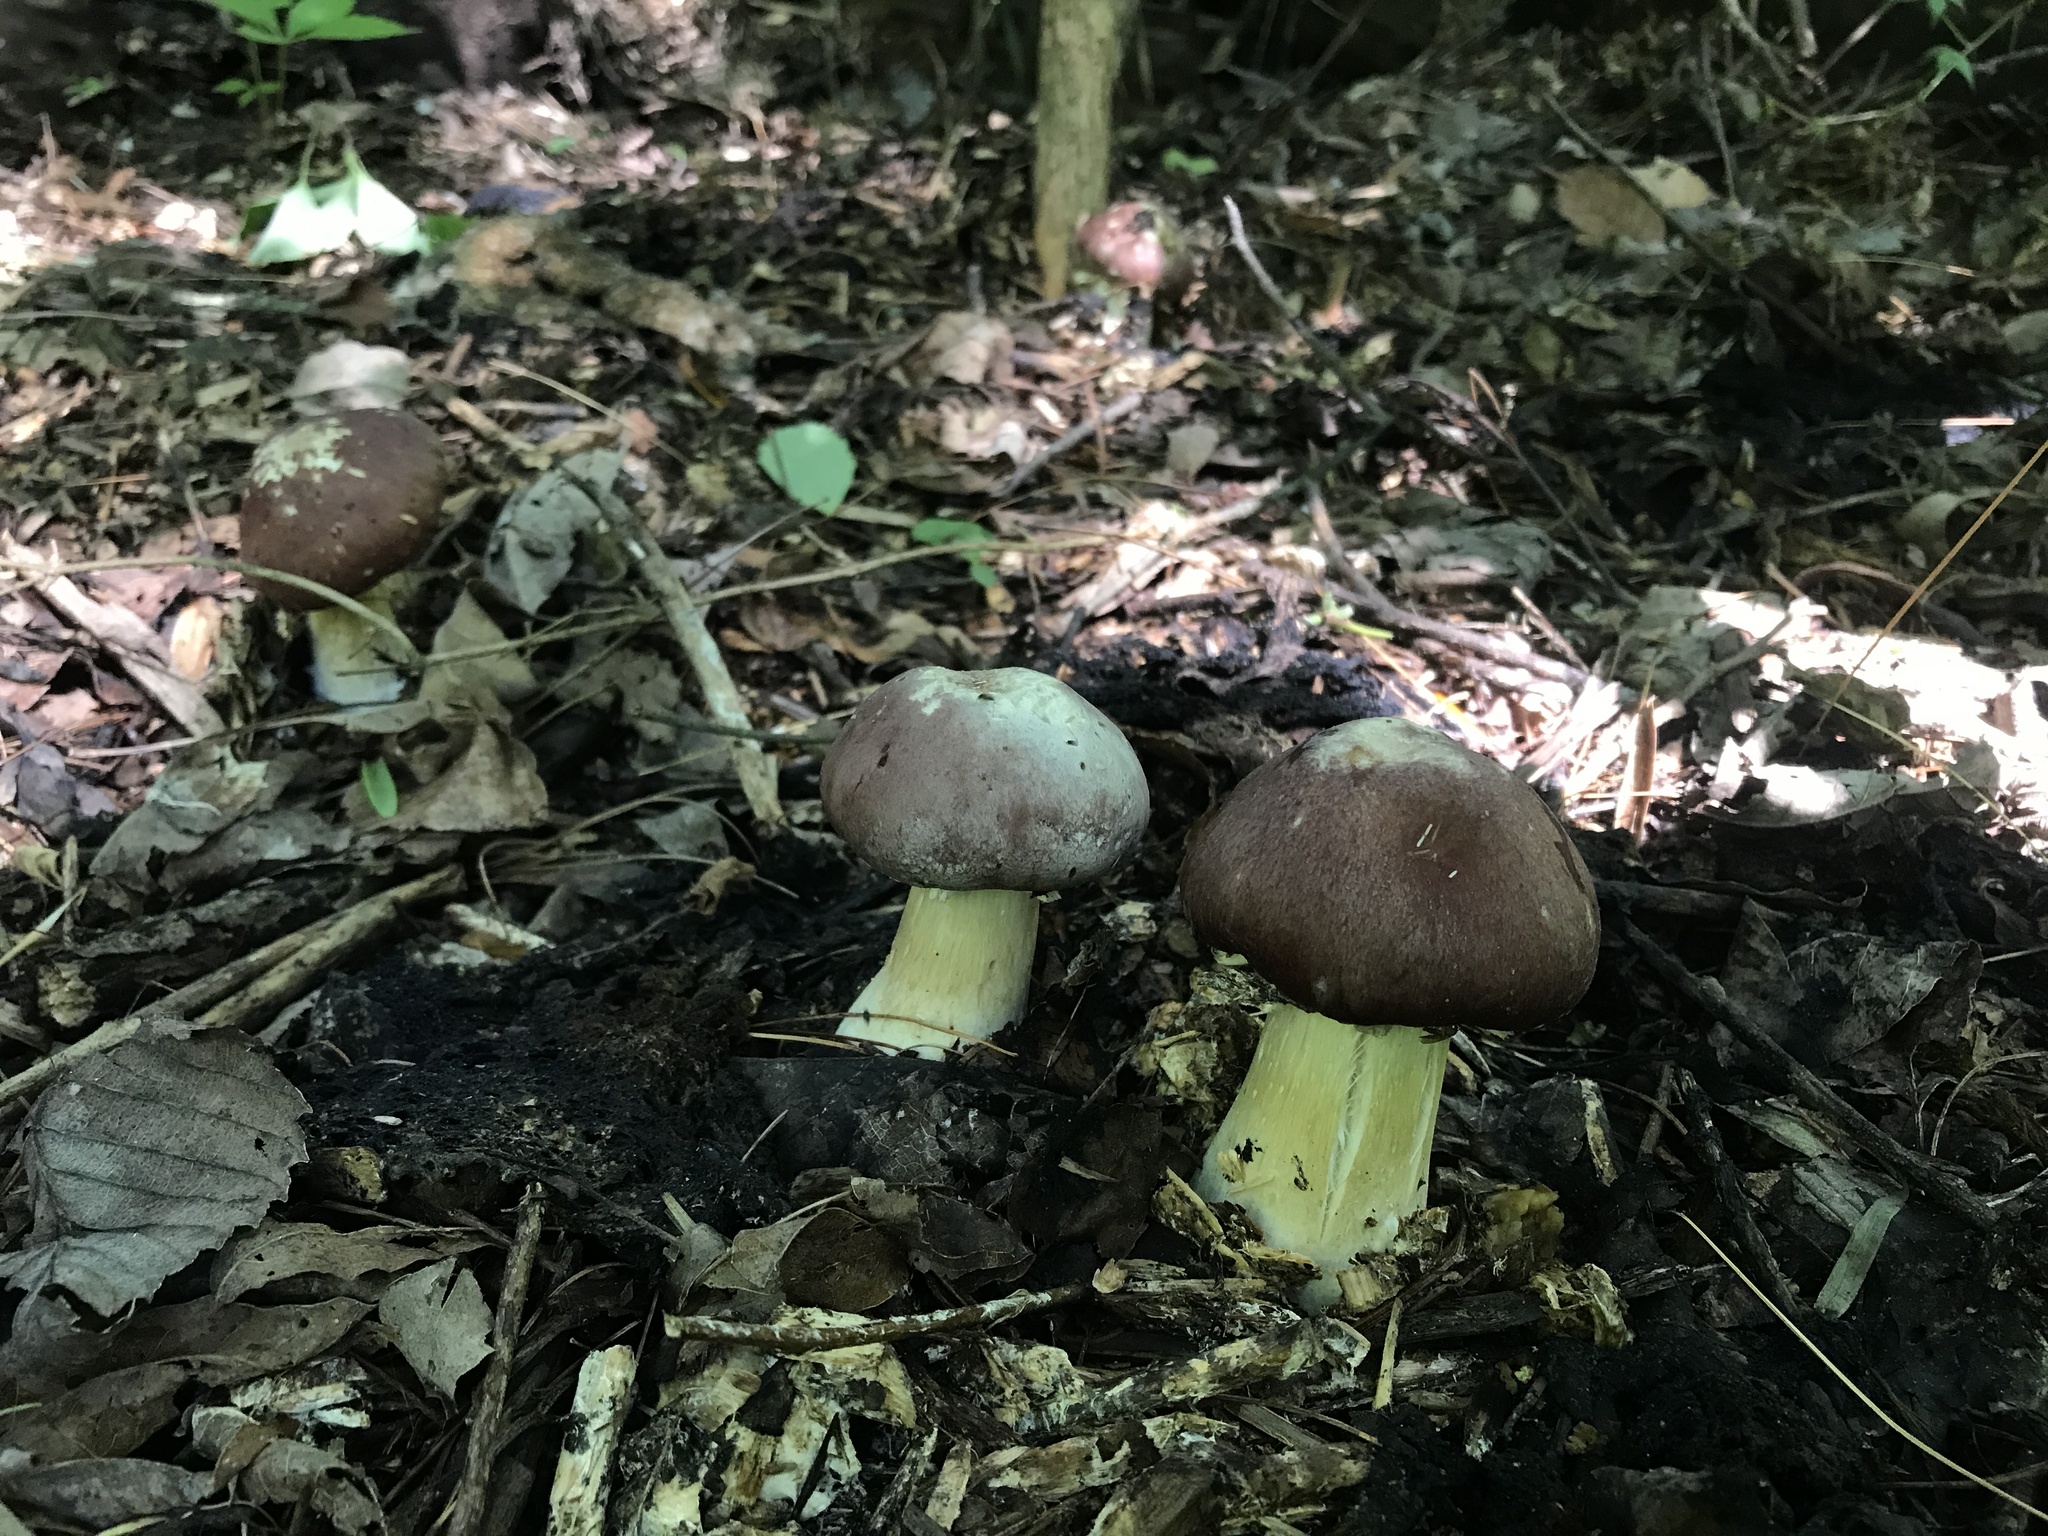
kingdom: Fungi
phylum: Basidiomycota
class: Agaricomycetes
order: Agaricales
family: Strophariaceae
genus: Stropharia
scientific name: Stropharia rugosoannulata
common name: Wine roundhead
